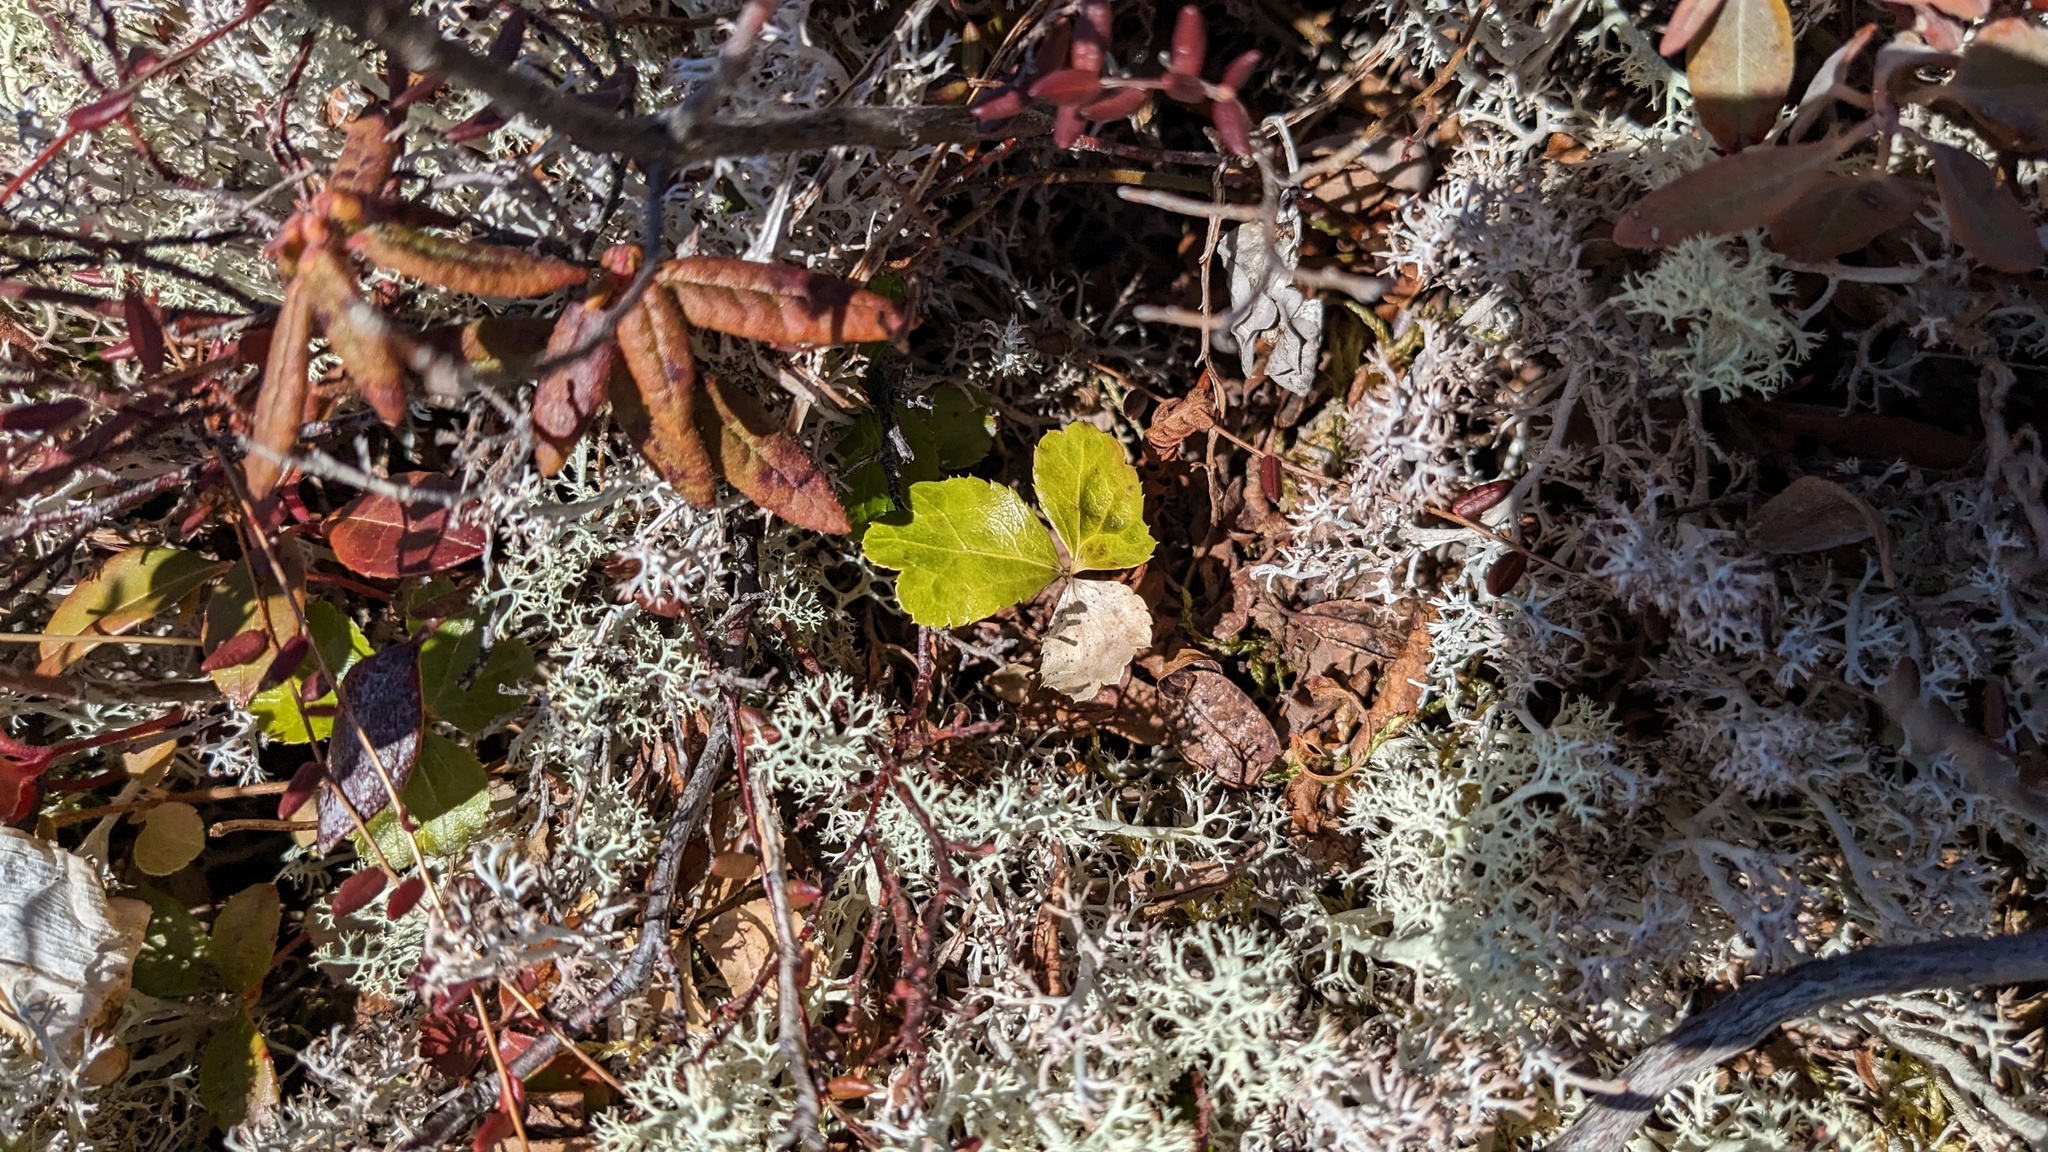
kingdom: Plantae
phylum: Tracheophyta
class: Magnoliopsida
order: Ranunculales
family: Ranunculaceae
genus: Coptis
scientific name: Coptis trifolia
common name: Canker-root
